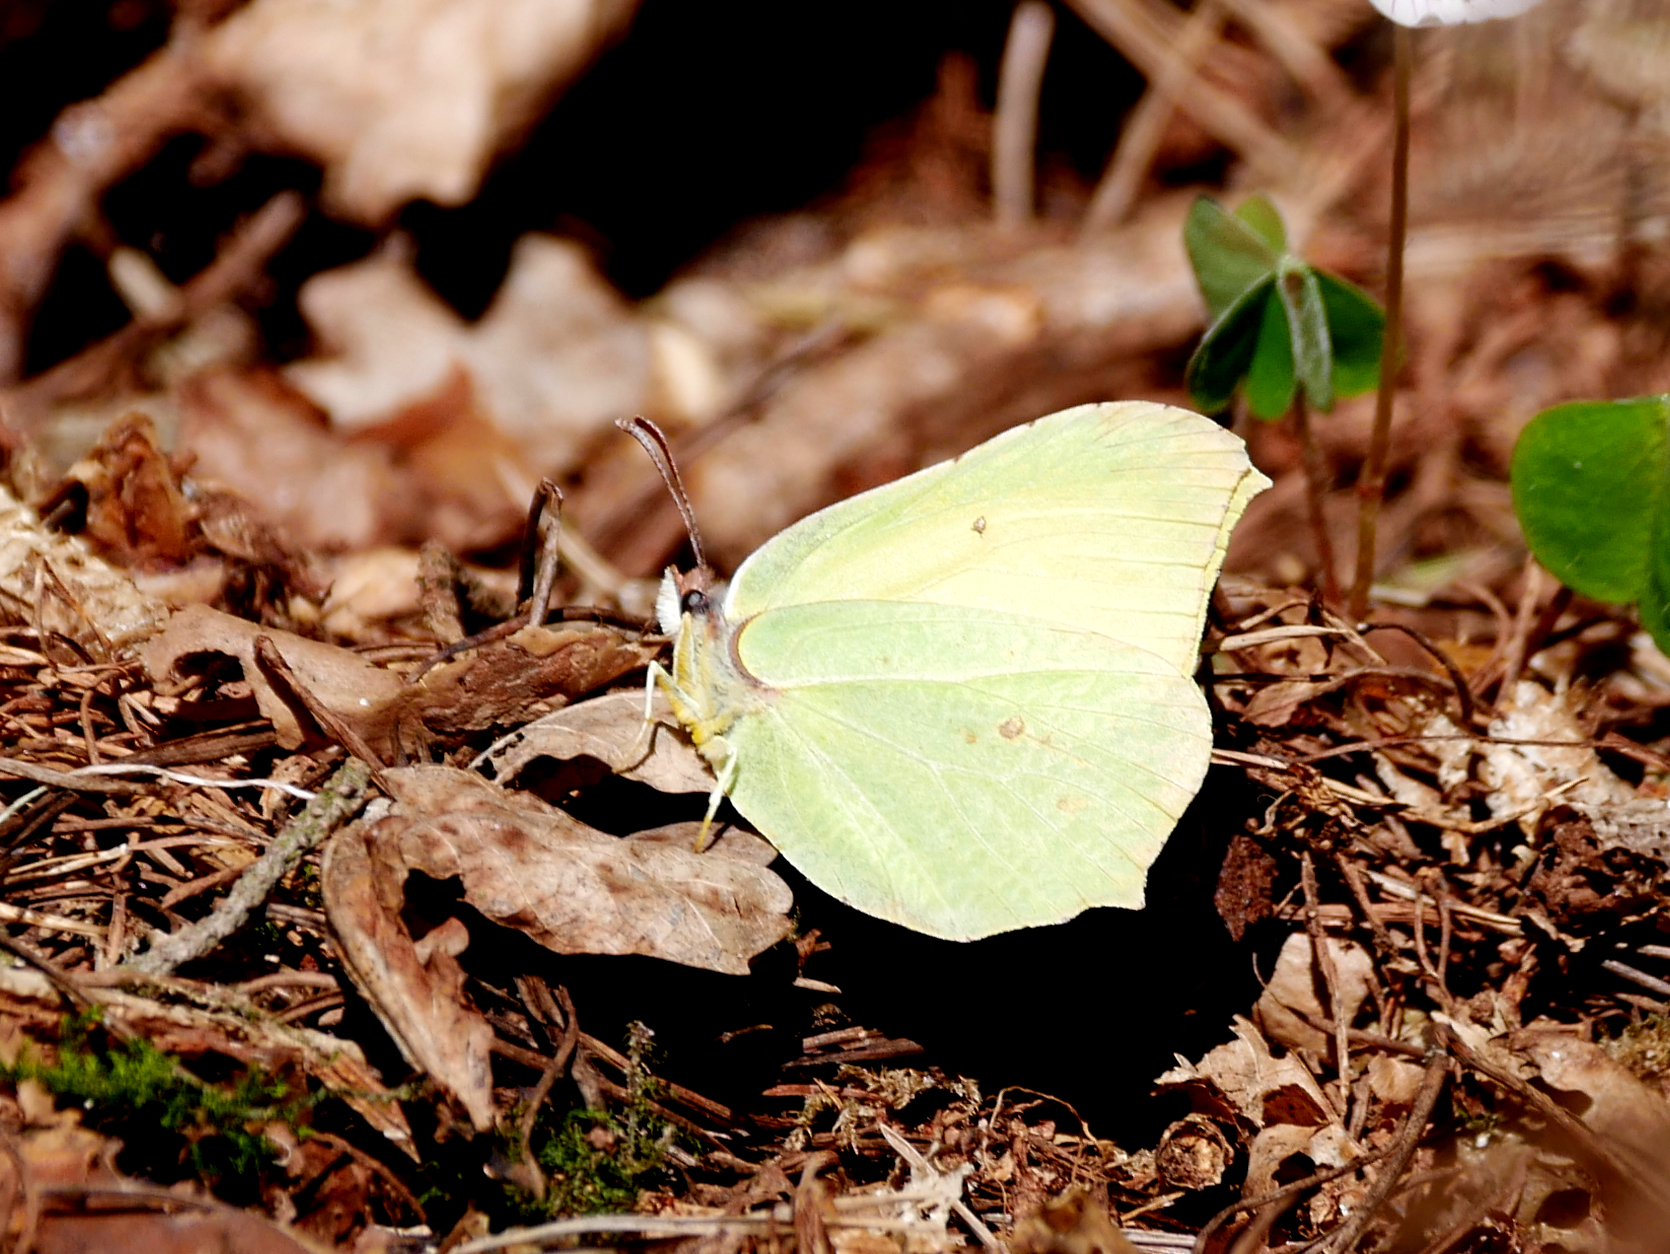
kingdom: Animalia
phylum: Arthropoda
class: Insecta
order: Lepidoptera
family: Pieridae
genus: Gonepteryx
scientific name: Gonepteryx rhamni
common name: Brimstone
